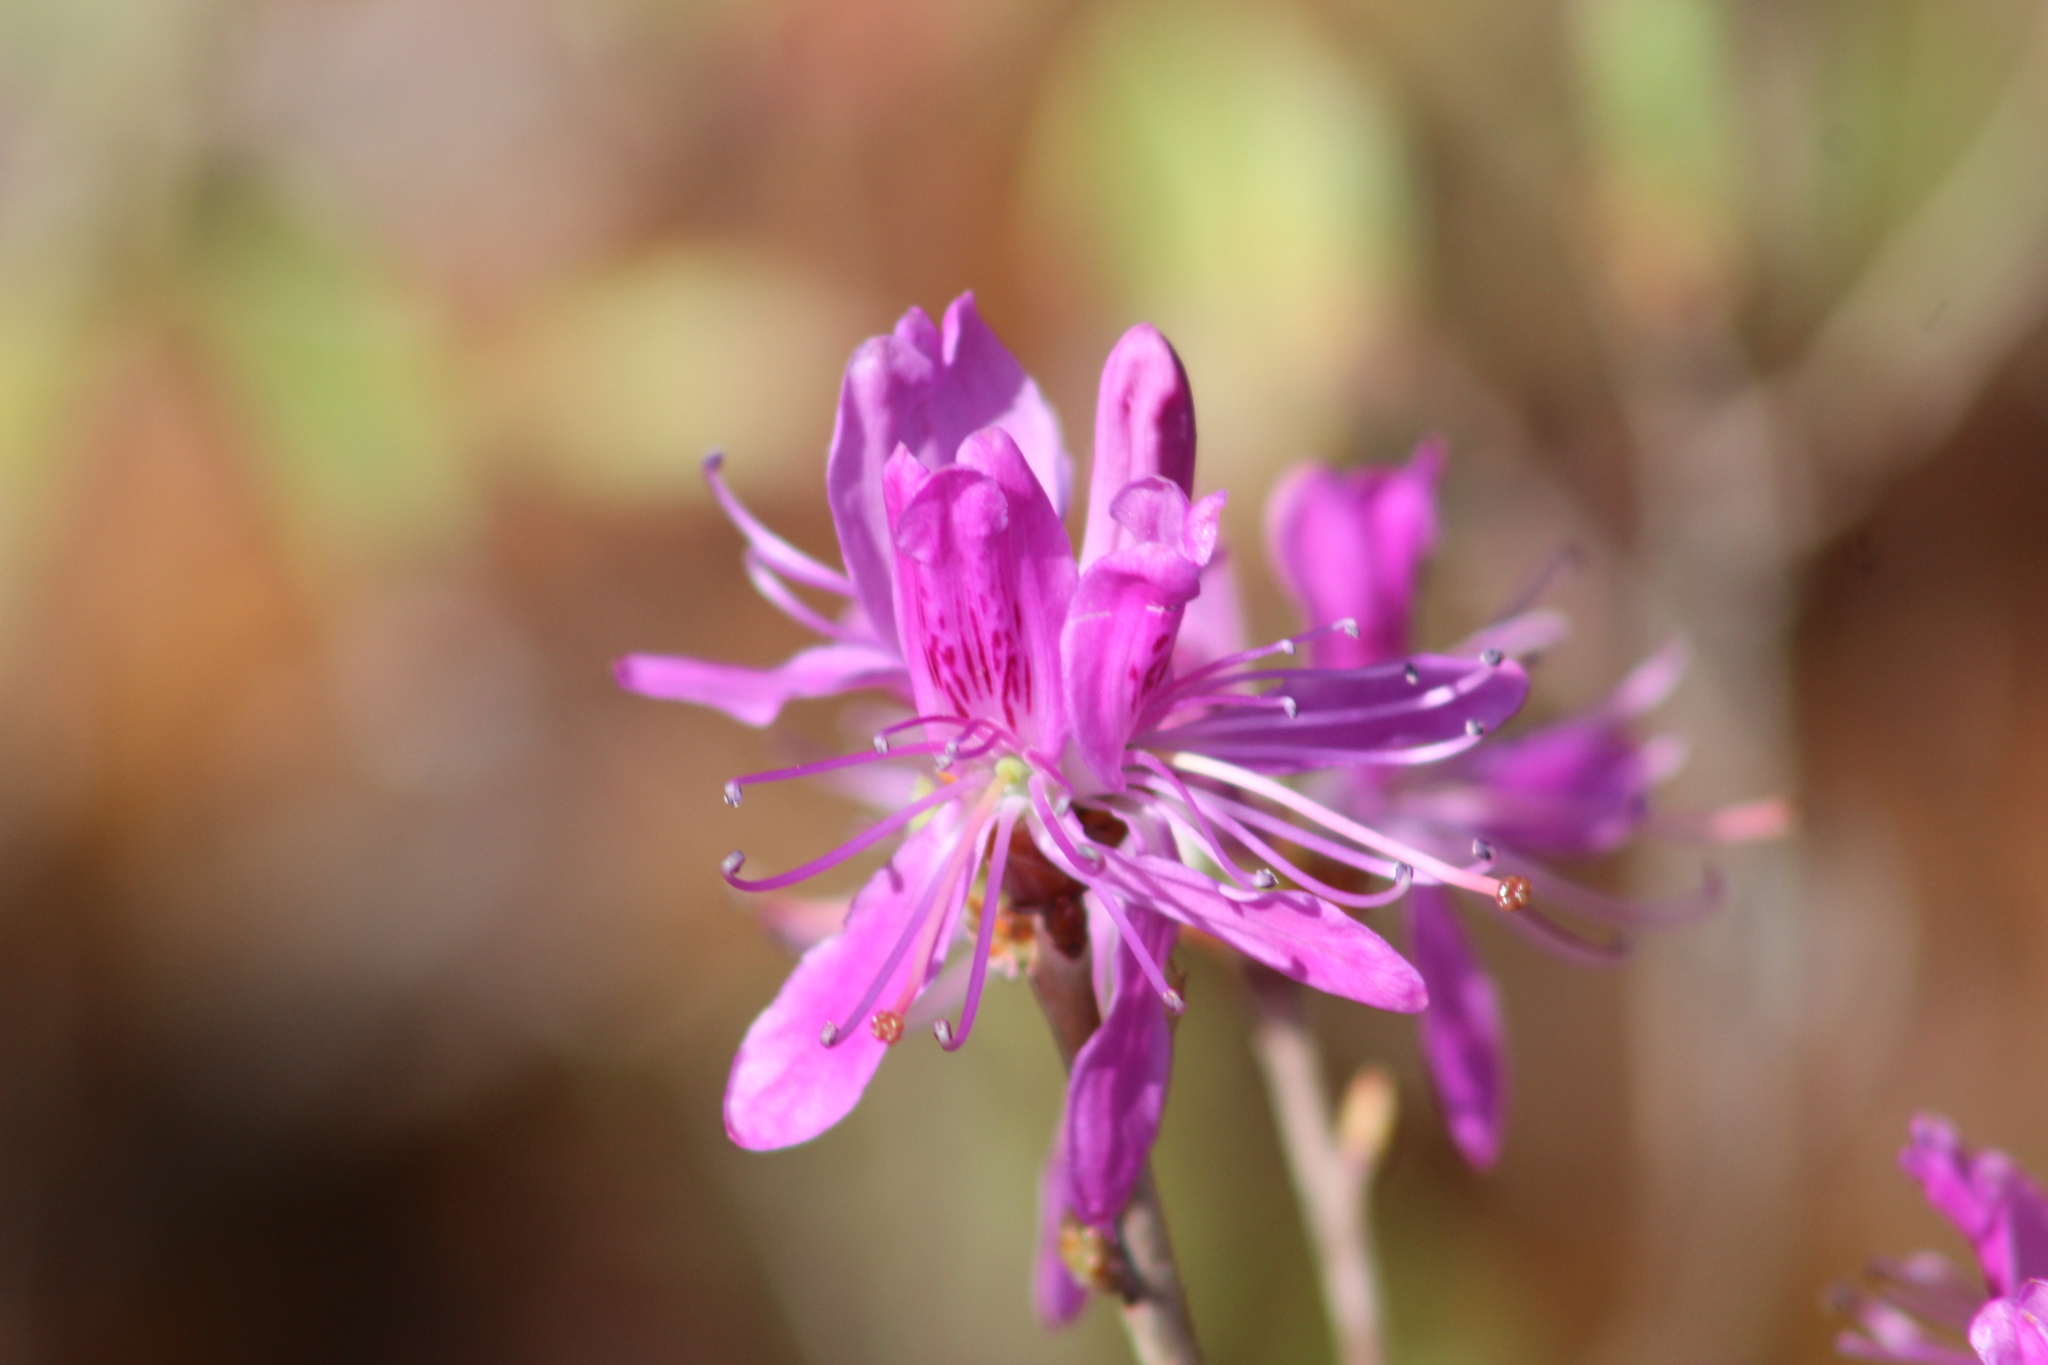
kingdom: Plantae
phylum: Tracheophyta
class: Magnoliopsida
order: Ericales
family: Ericaceae
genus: Rhododendron
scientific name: Rhododendron canadense
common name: Rhodora
